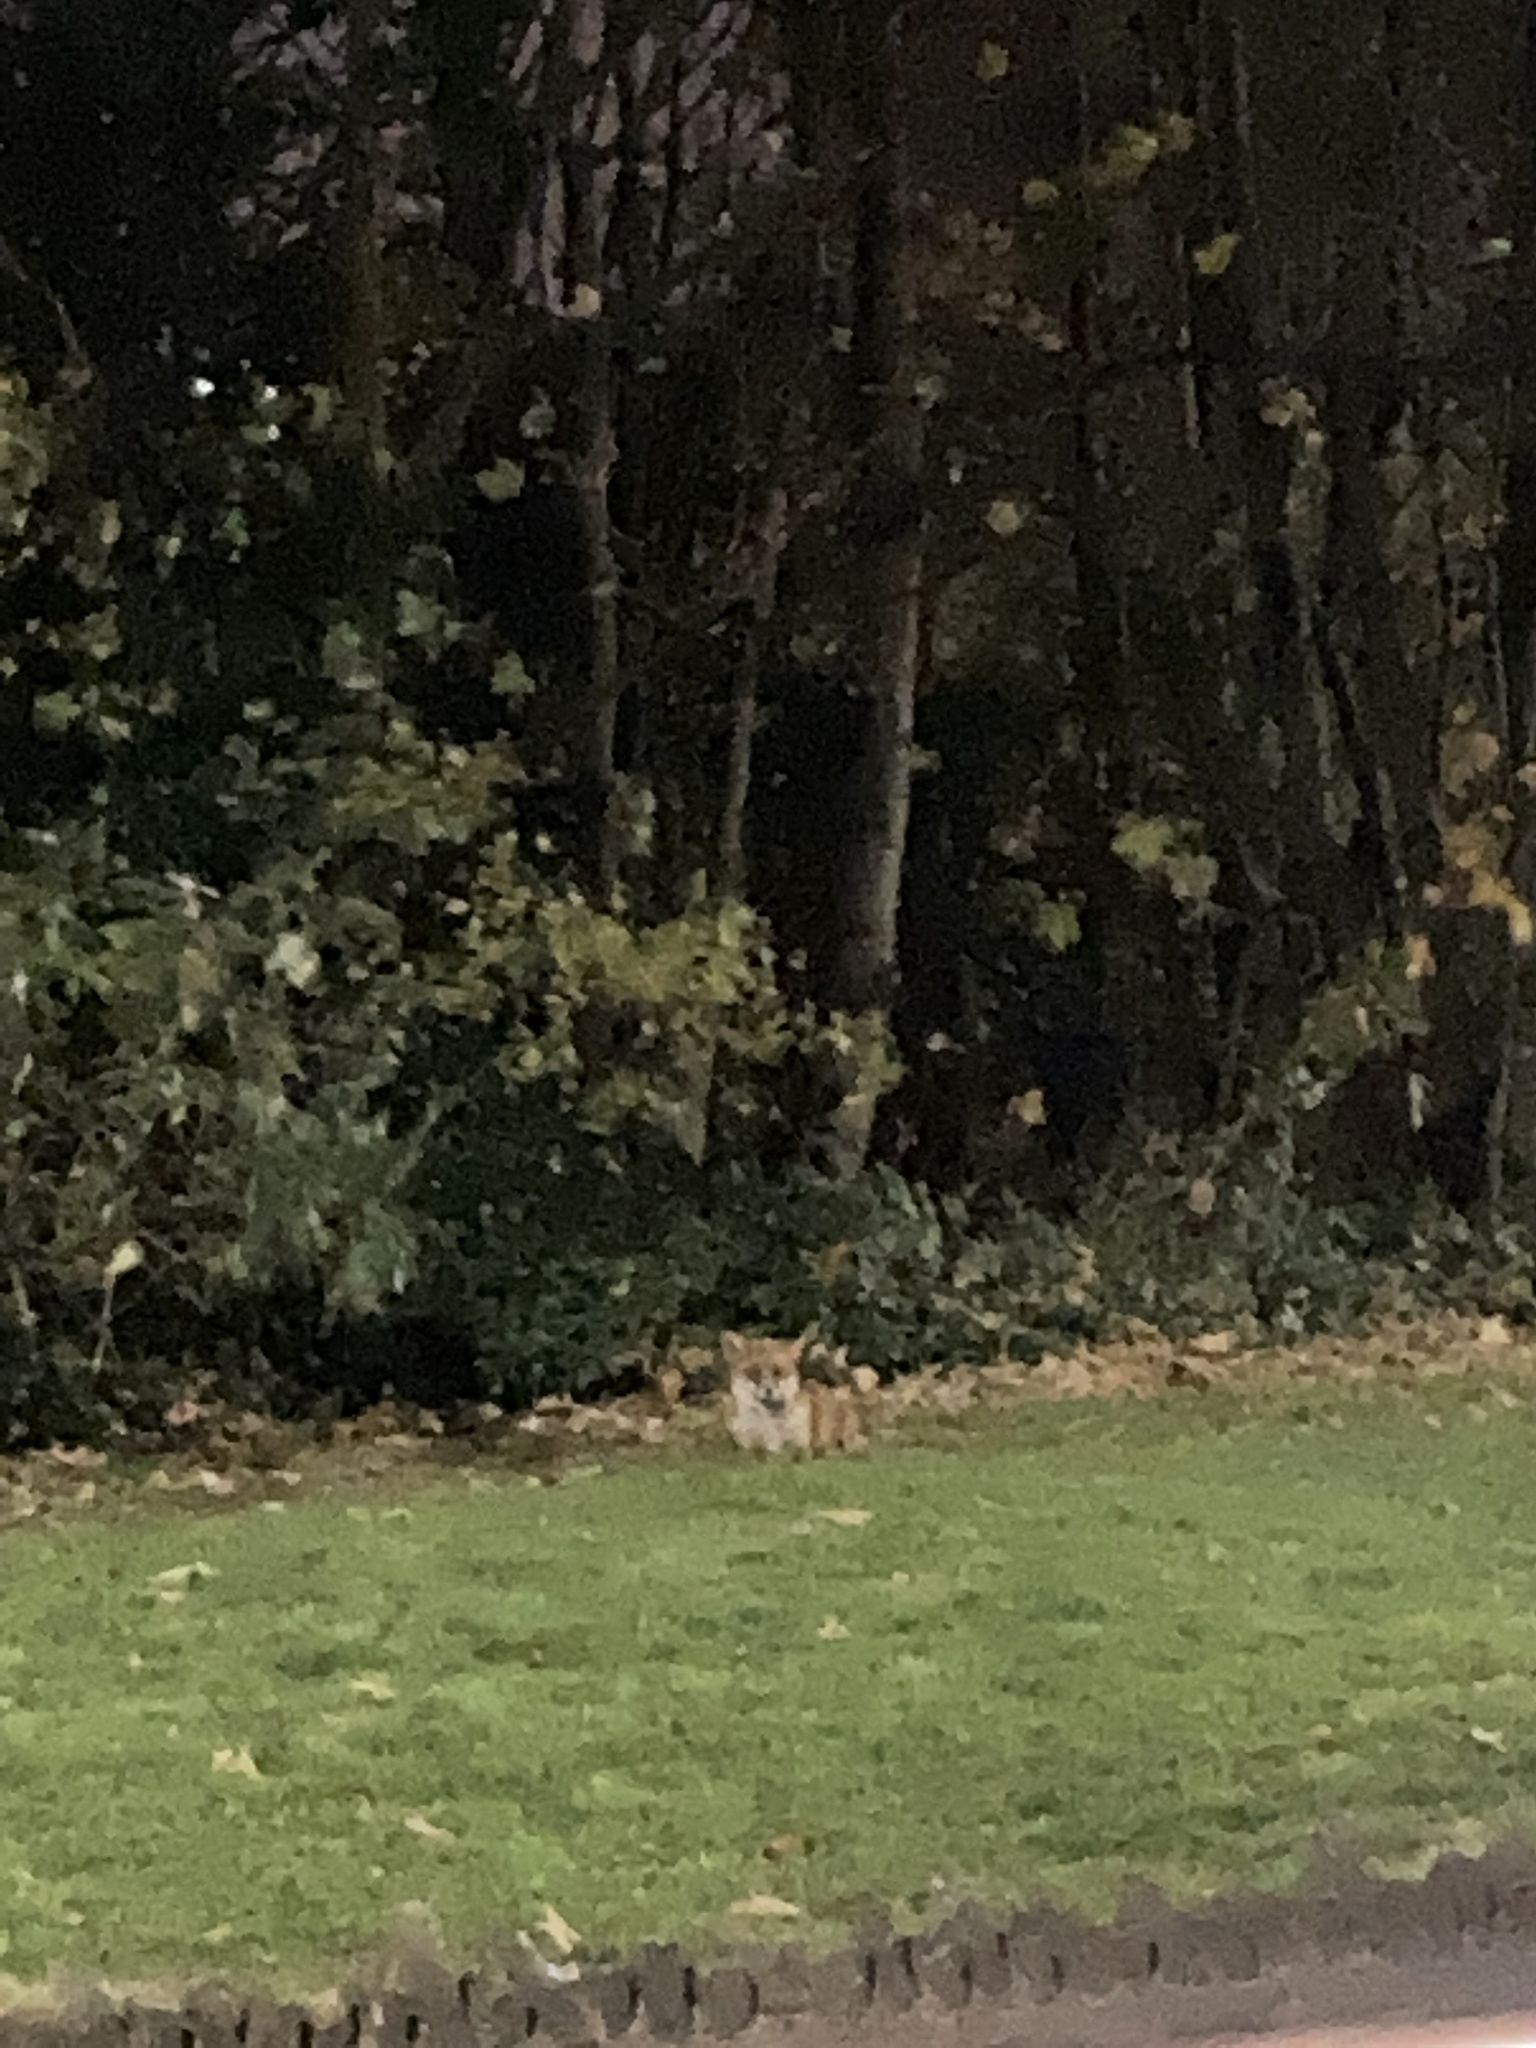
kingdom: Animalia
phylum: Chordata
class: Mammalia
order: Carnivora
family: Canidae
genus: Vulpes
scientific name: Vulpes vulpes
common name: Red fox
